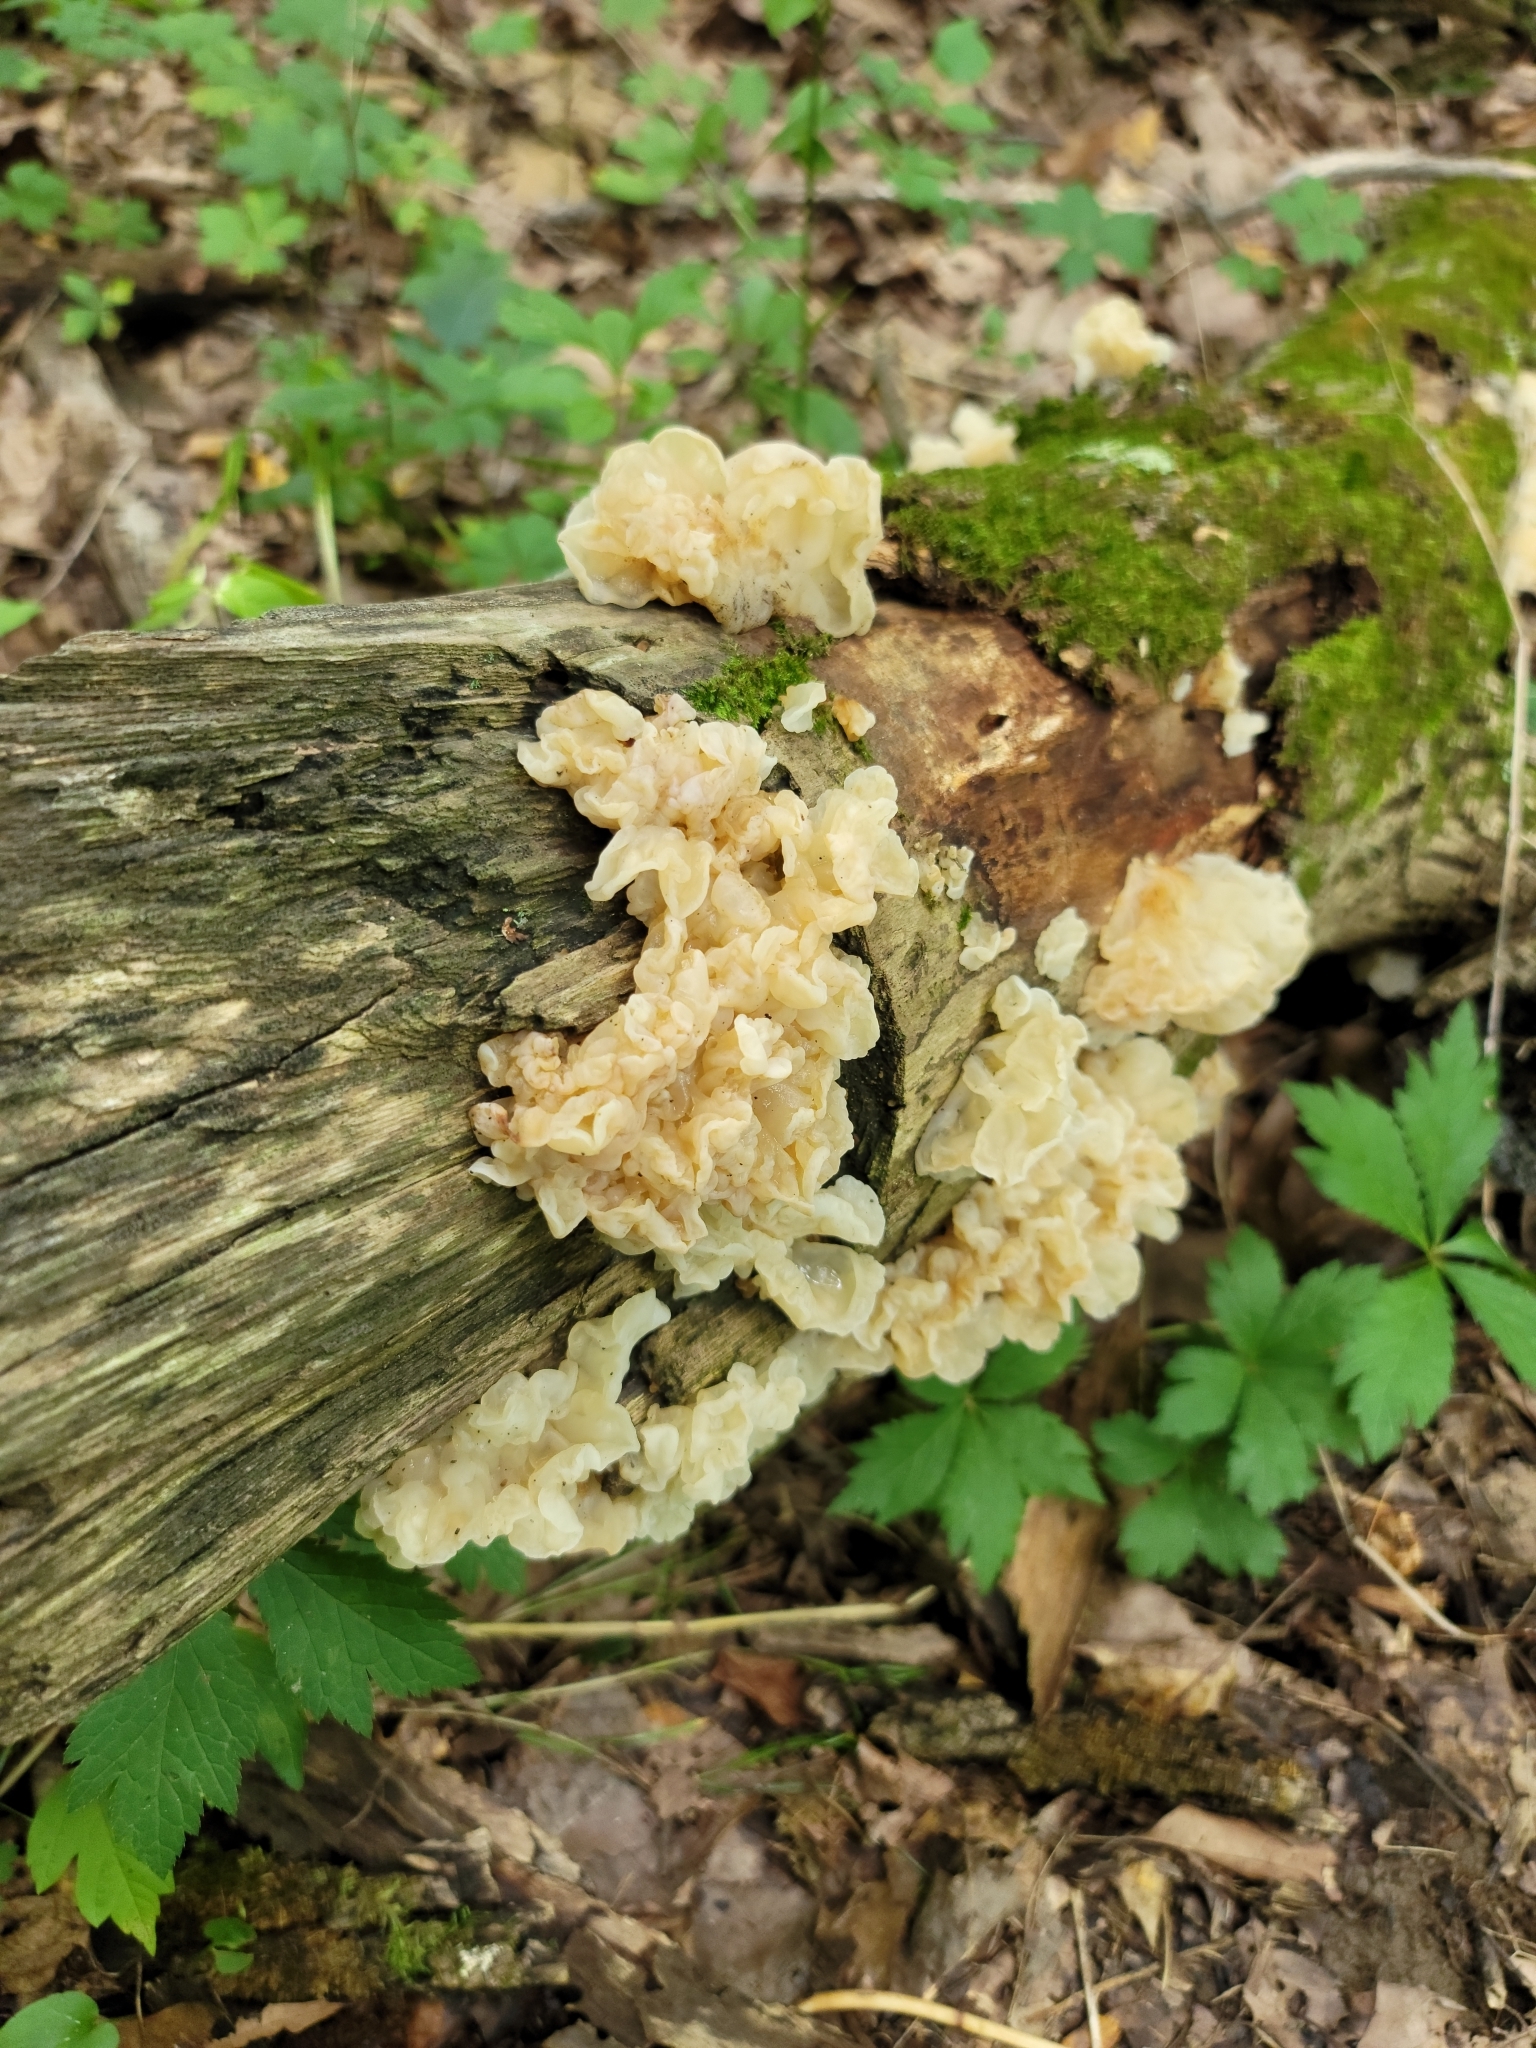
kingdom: Fungi
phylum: Basidiomycota
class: Agaricomycetes
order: Auriculariales
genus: Ductifera
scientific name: Ductifera pululahuana
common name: White jelly fungus
